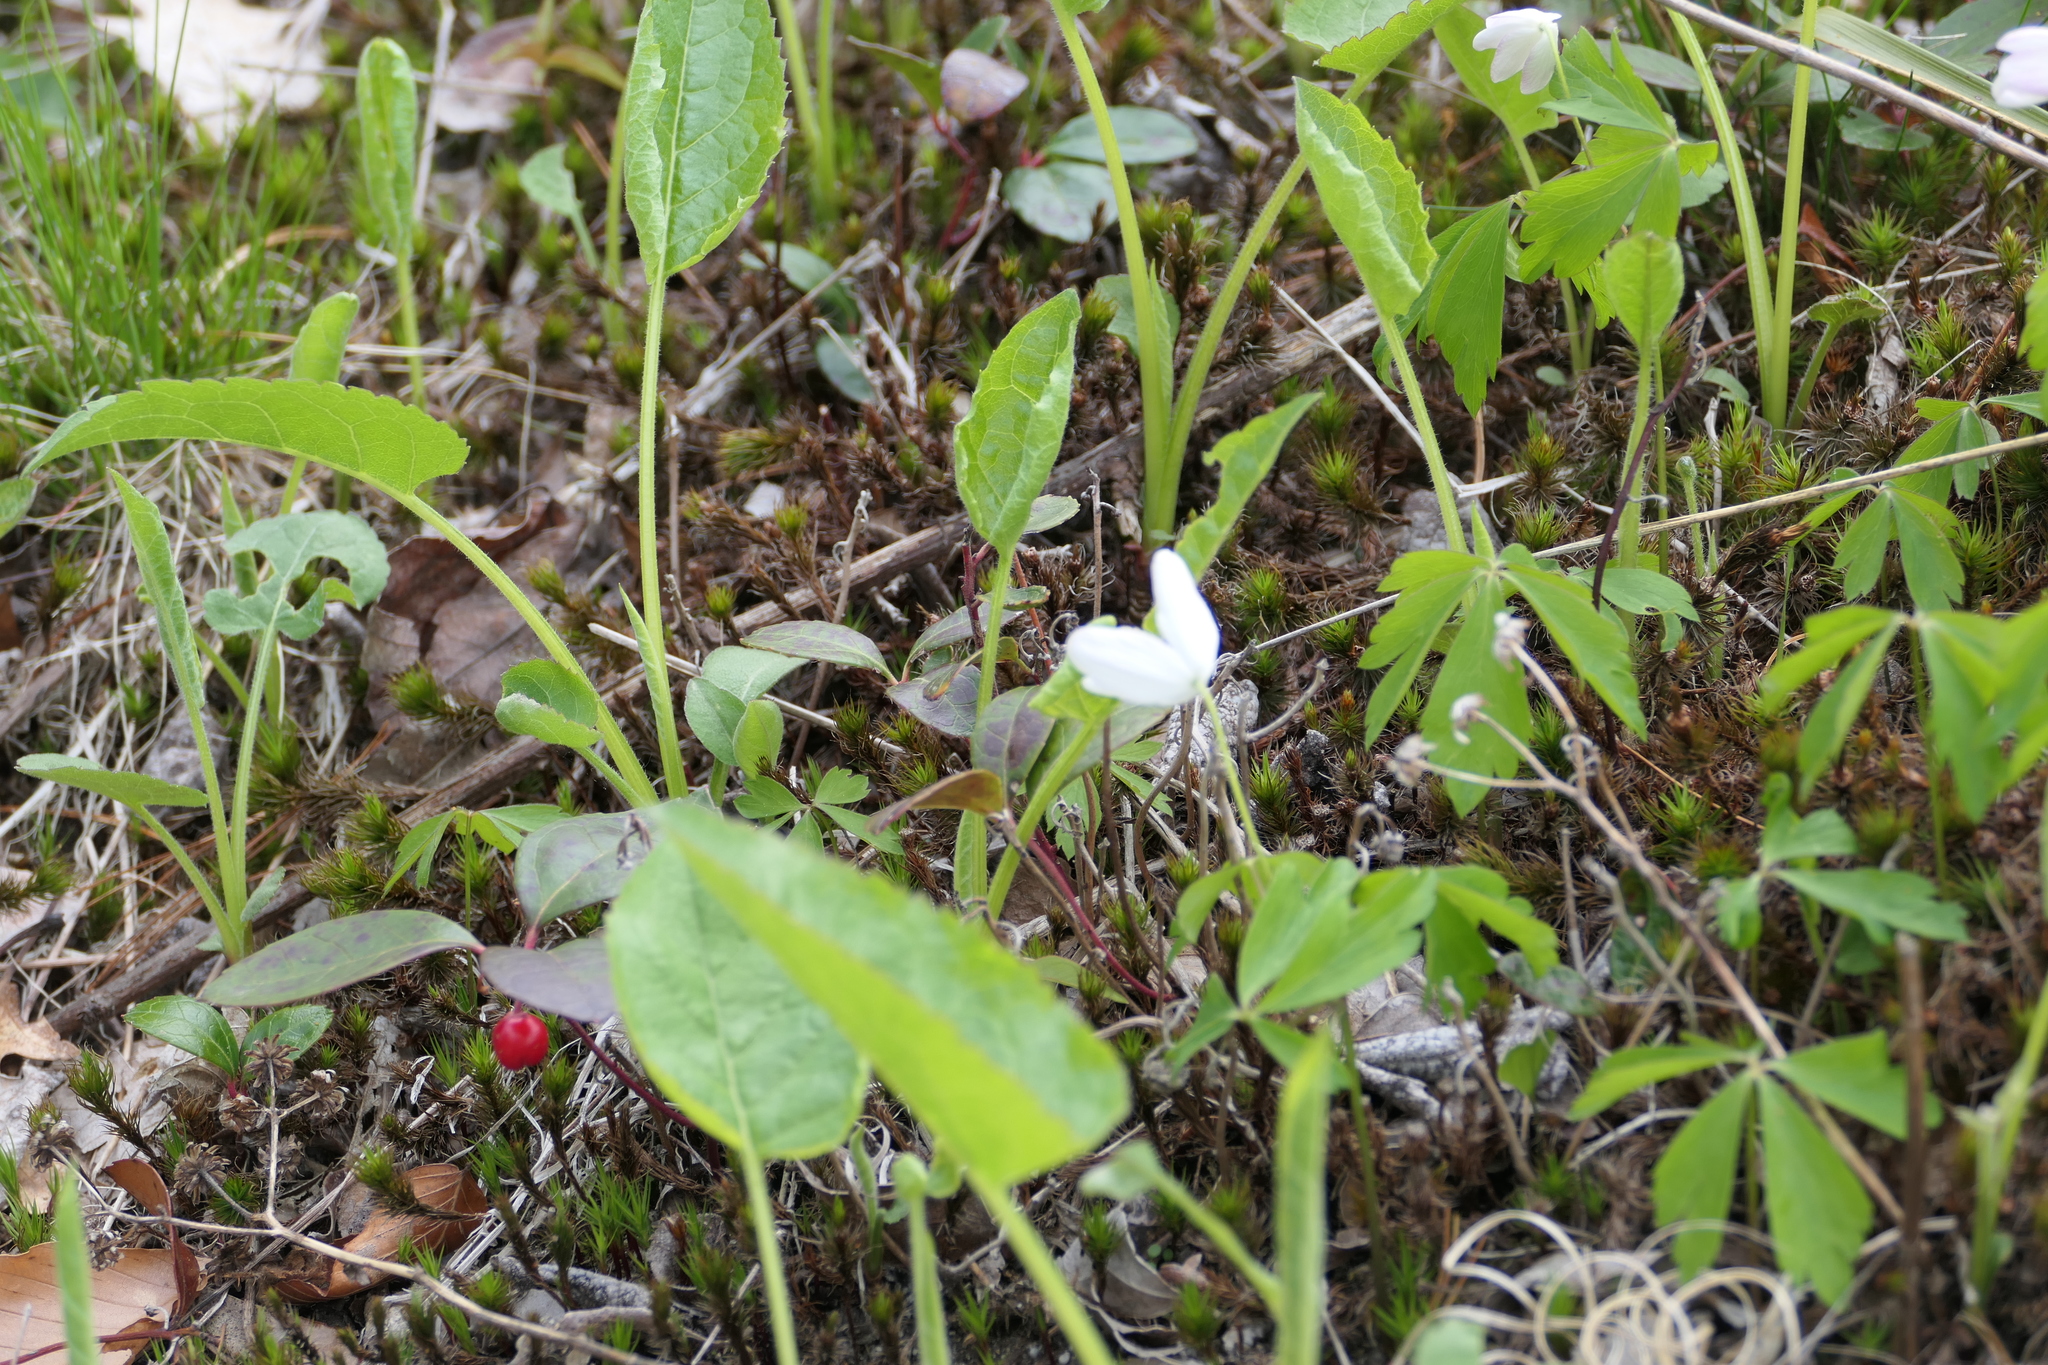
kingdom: Plantae
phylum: Tracheophyta
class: Magnoliopsida
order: Ranunculales
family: Ranunculaceae
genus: Anemone
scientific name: Anemone quinquefolia
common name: Wood anemone
